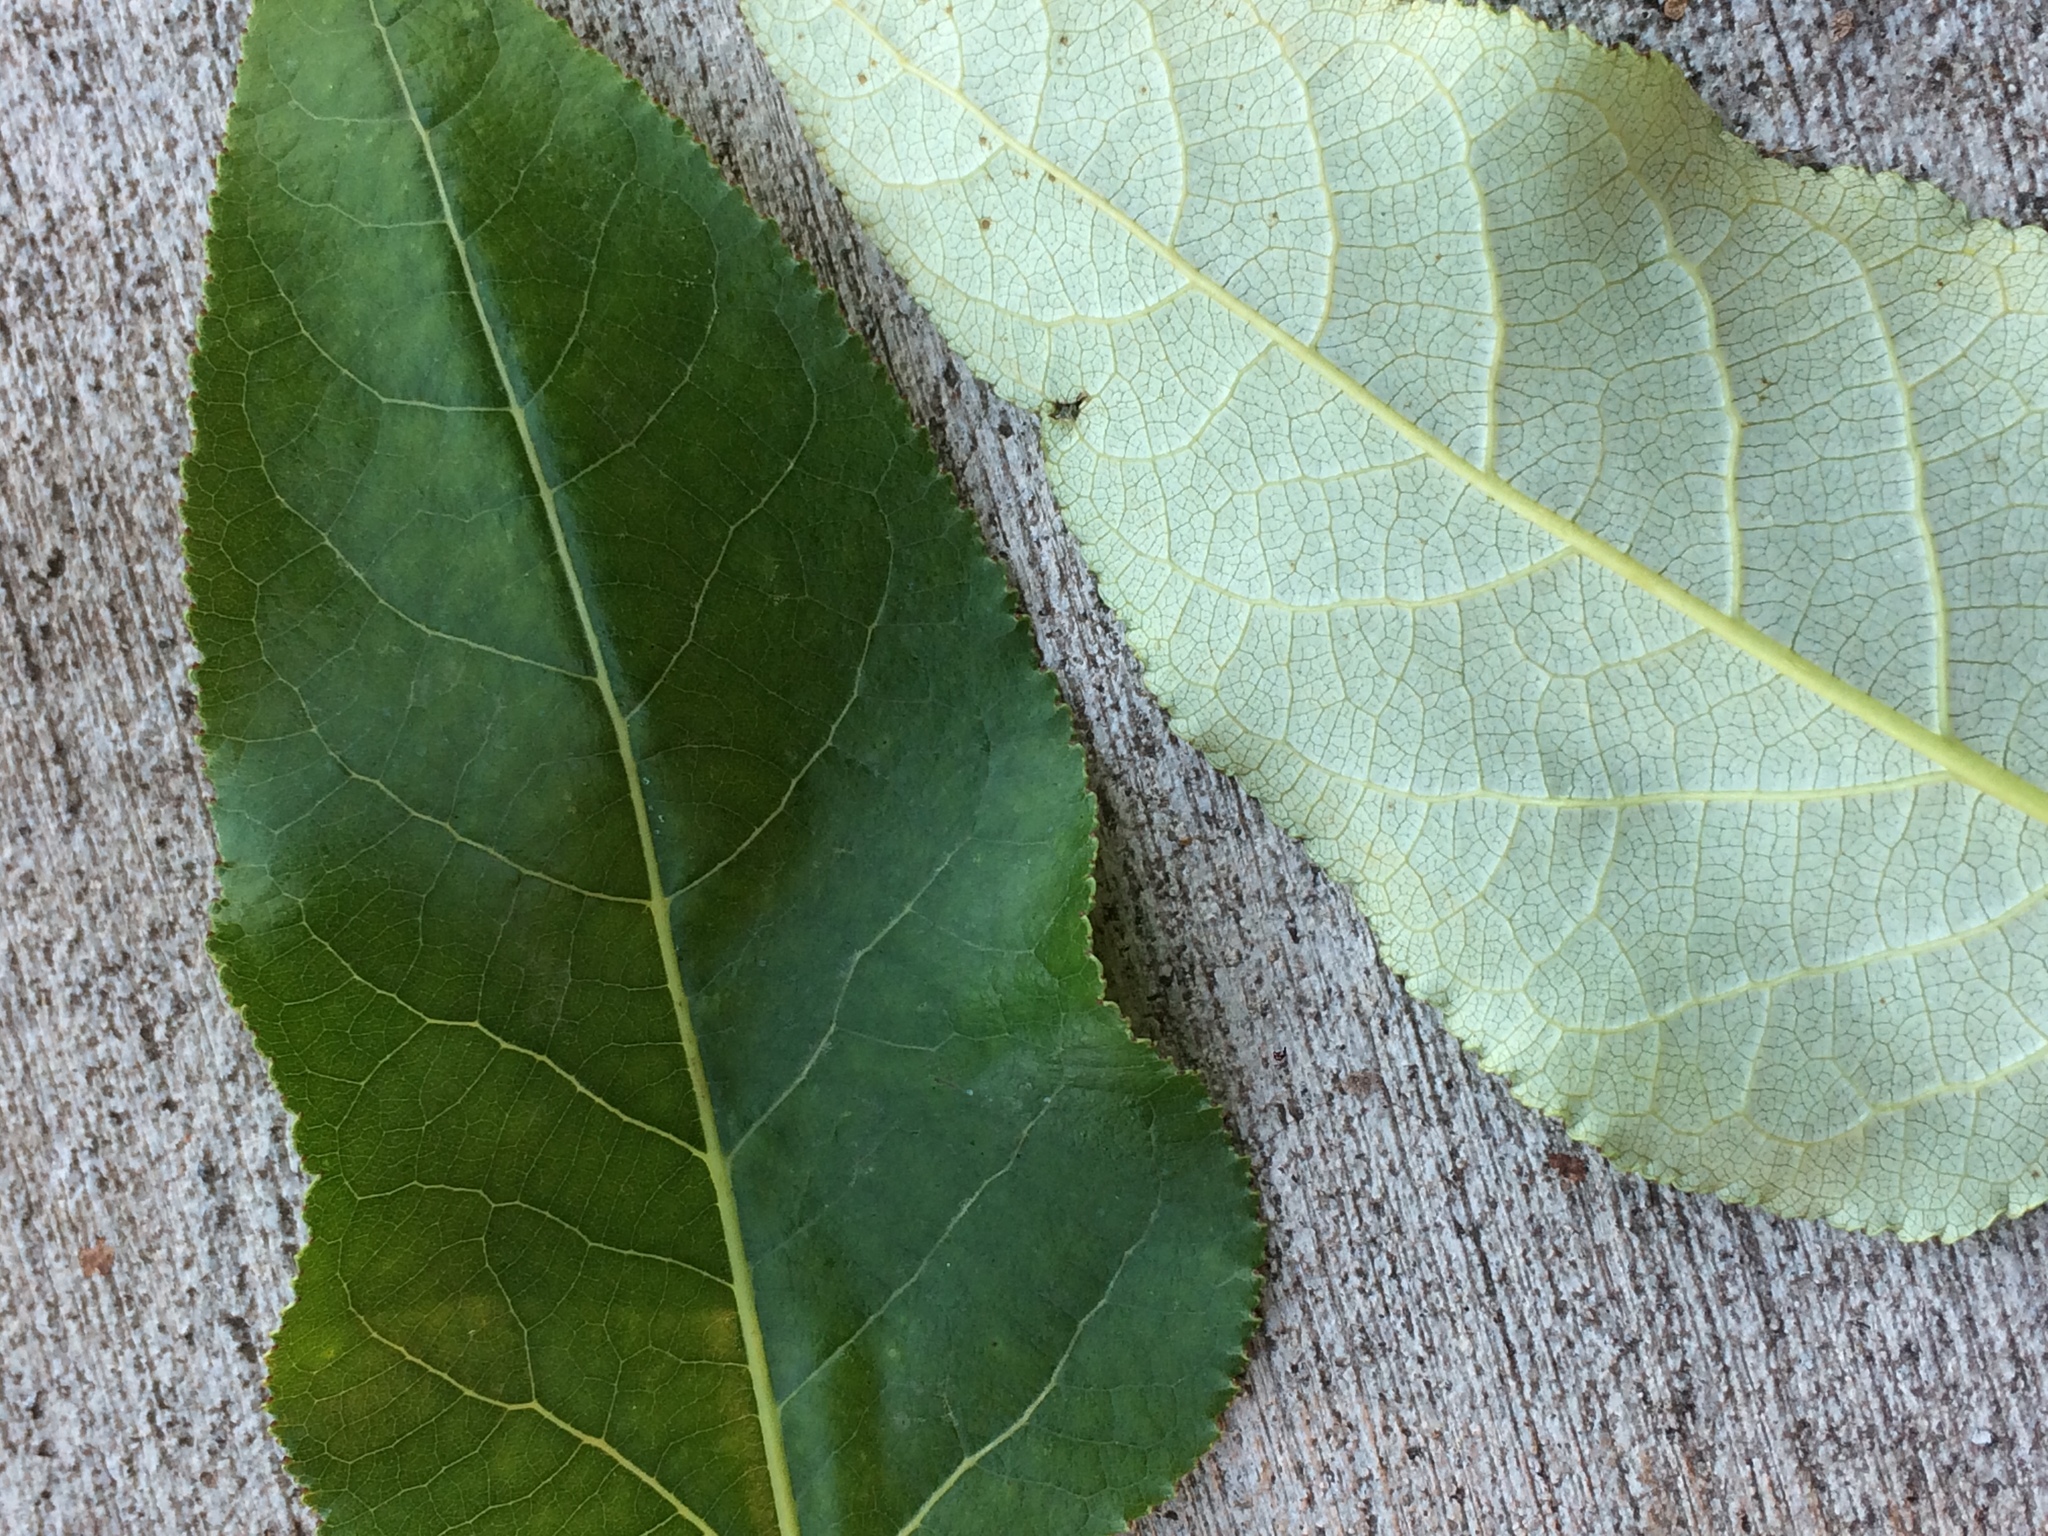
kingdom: Plantae
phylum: Tracheophyta
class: Magnoliopsida
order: Malpighiales
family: Salicaceae
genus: Populus
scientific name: Populus trichocarpa
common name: Black cottonwood
